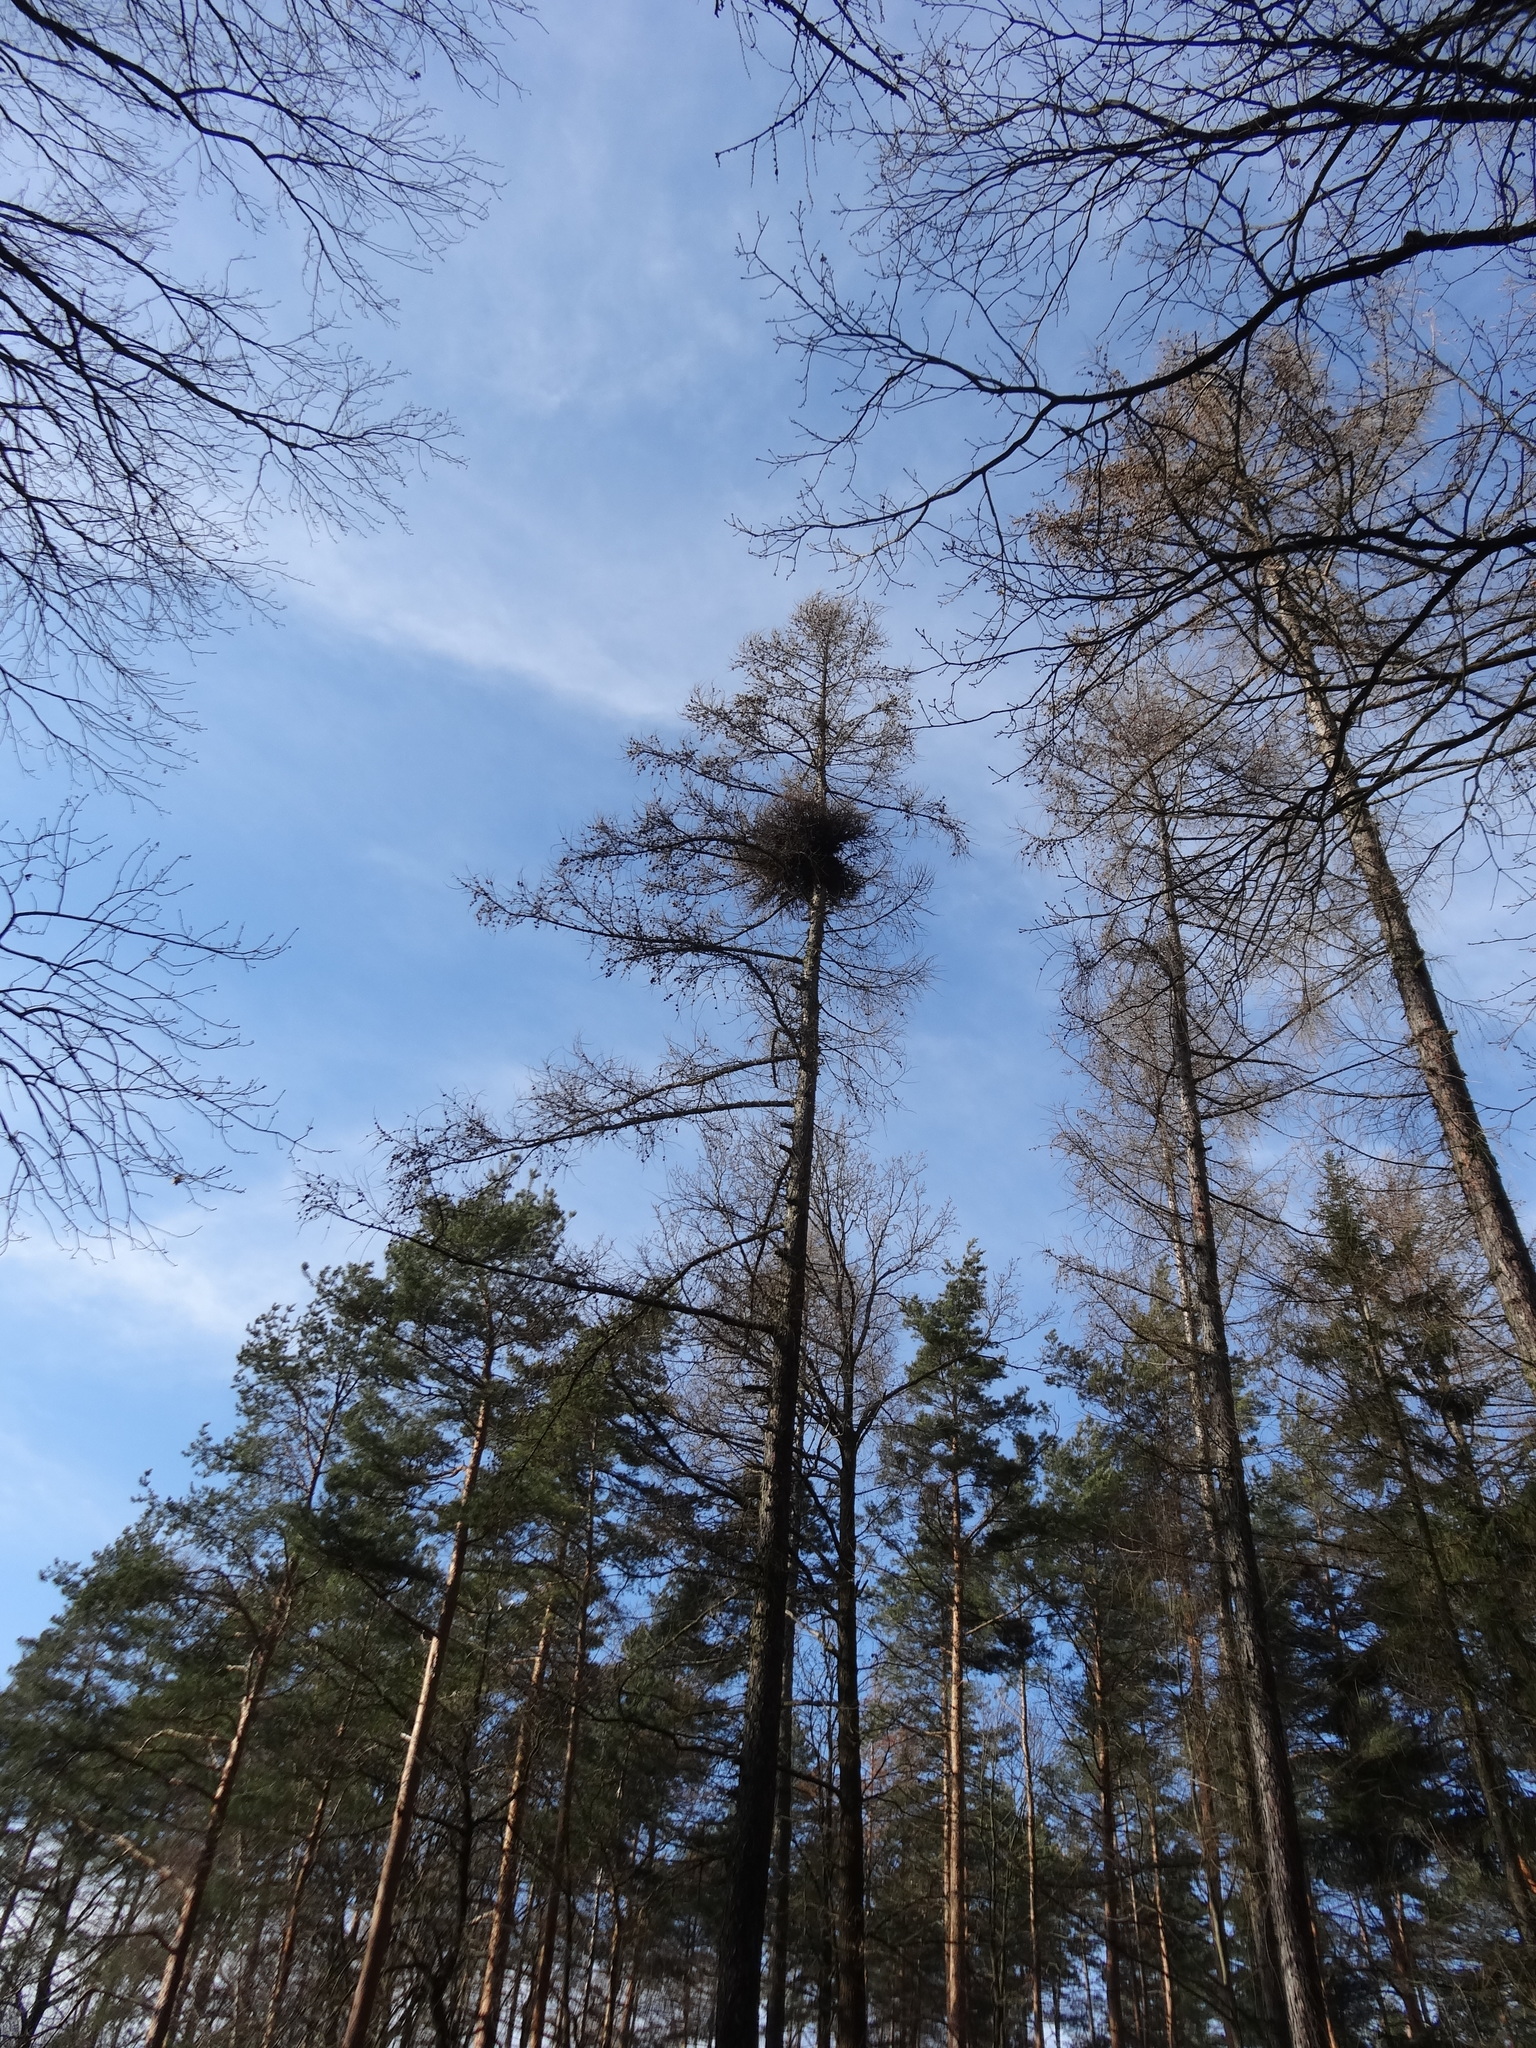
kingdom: Plantae
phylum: Tracheophyta
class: Magnoliopsida
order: Santalales
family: Viscaceae
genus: Viscum
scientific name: Viscum album
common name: Mistletoe
